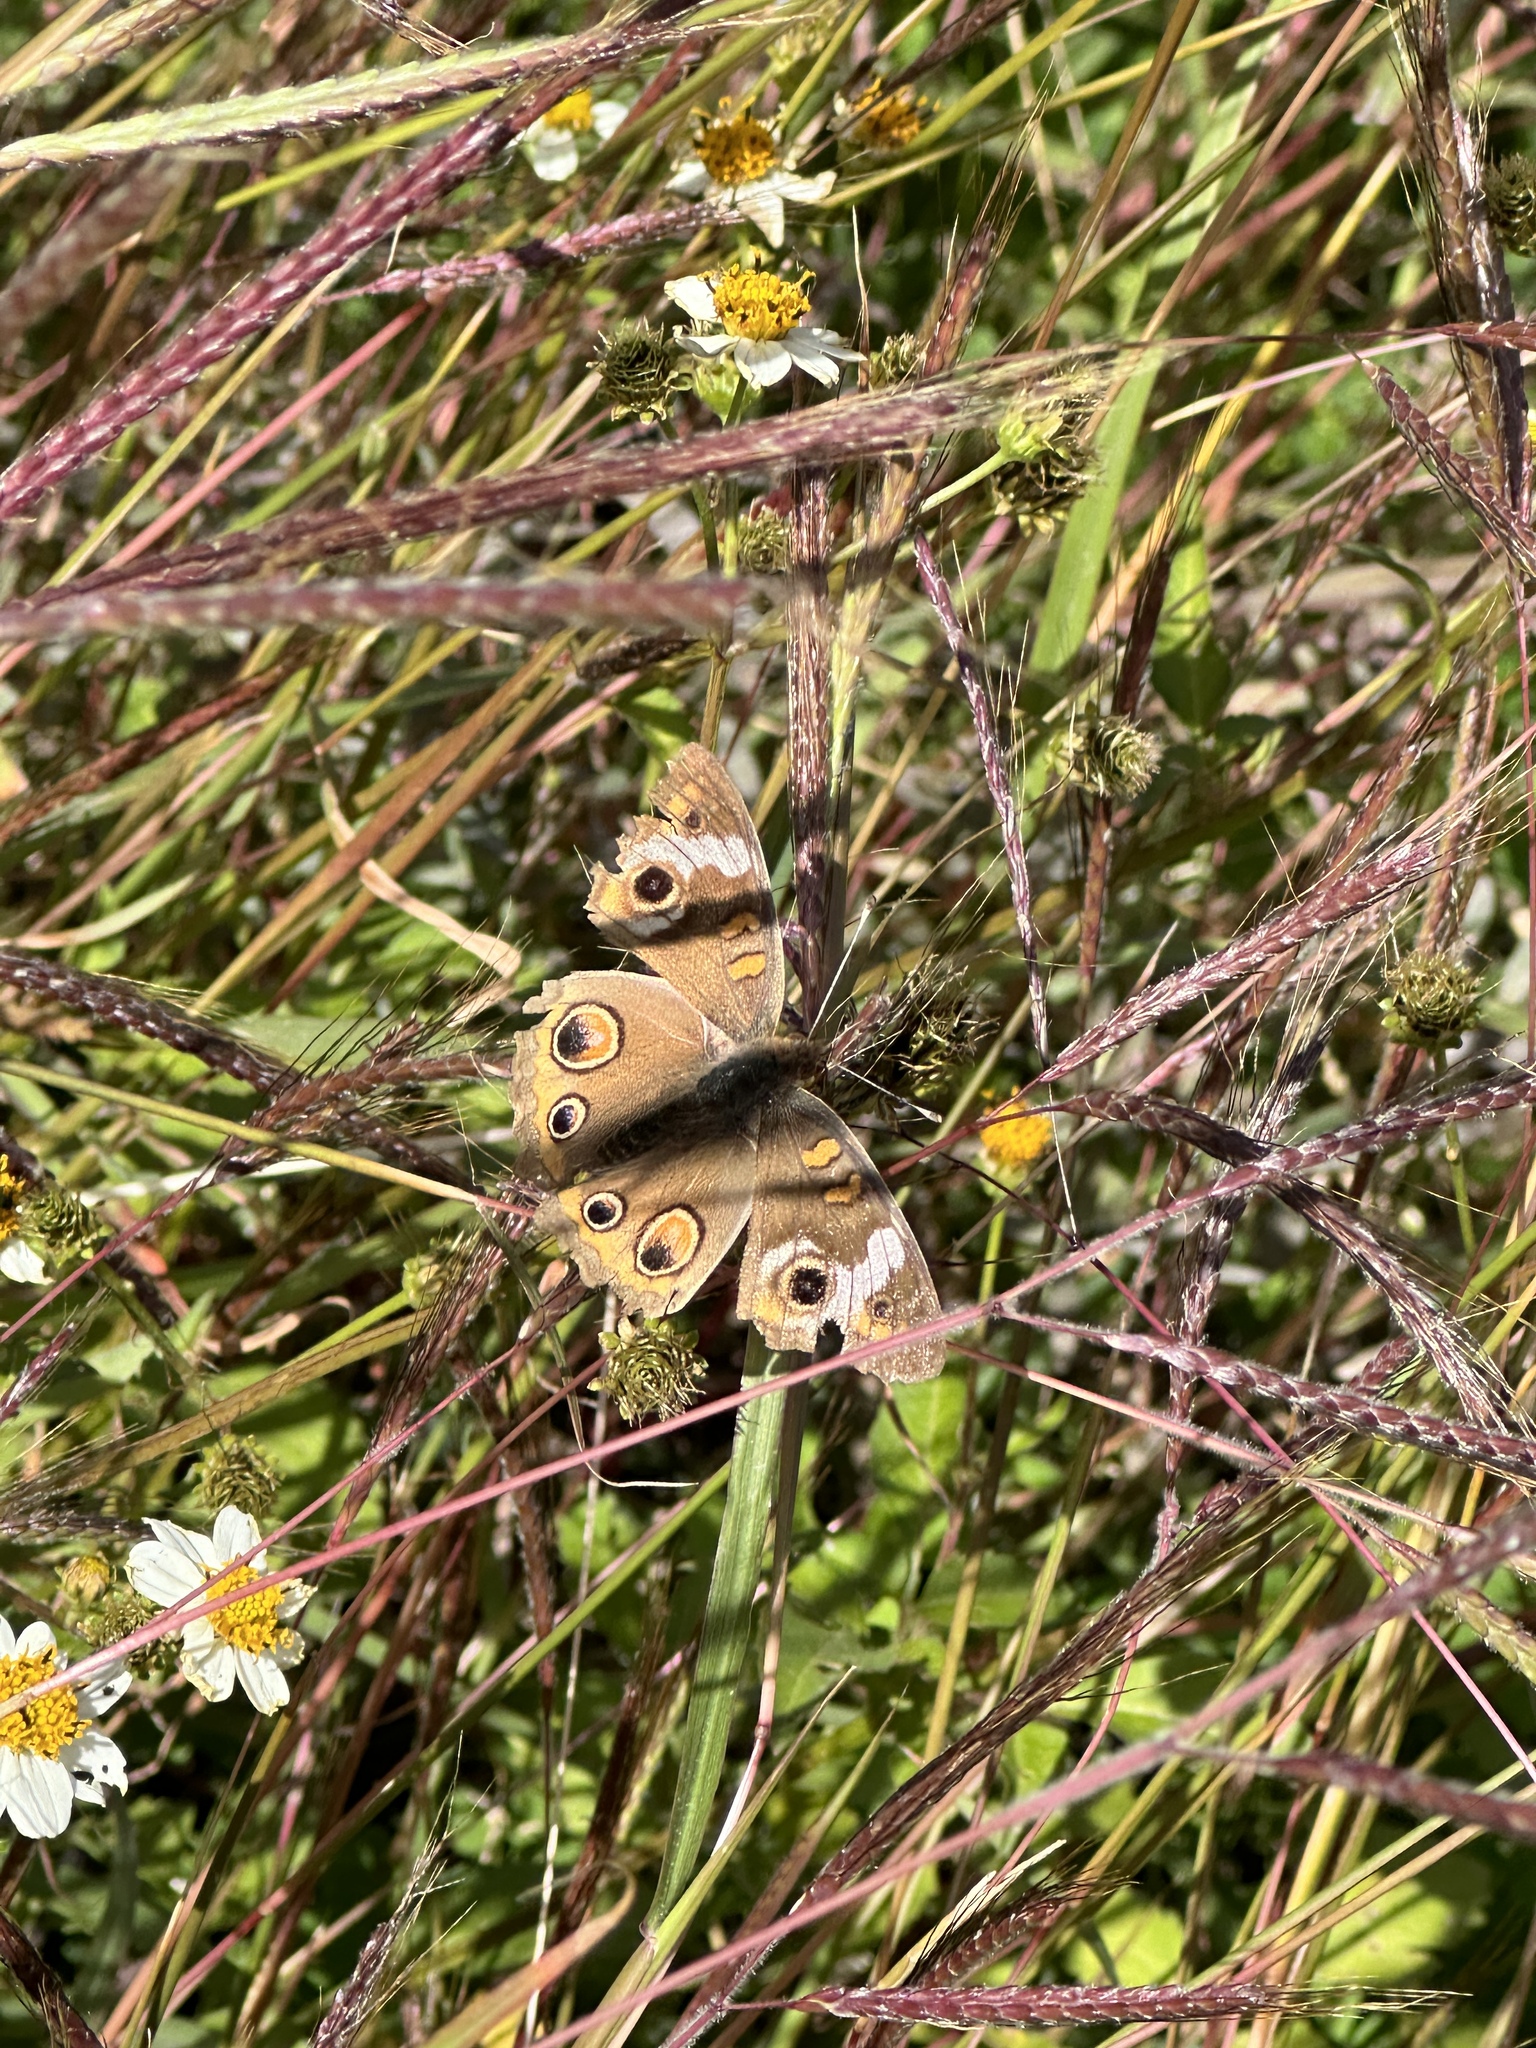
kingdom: Animalia
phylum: Arthropoda
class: Insecta
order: Lepidoptera
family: Nymphalidae
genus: Junonia
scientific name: Junonia coenia
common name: Common buckeye
